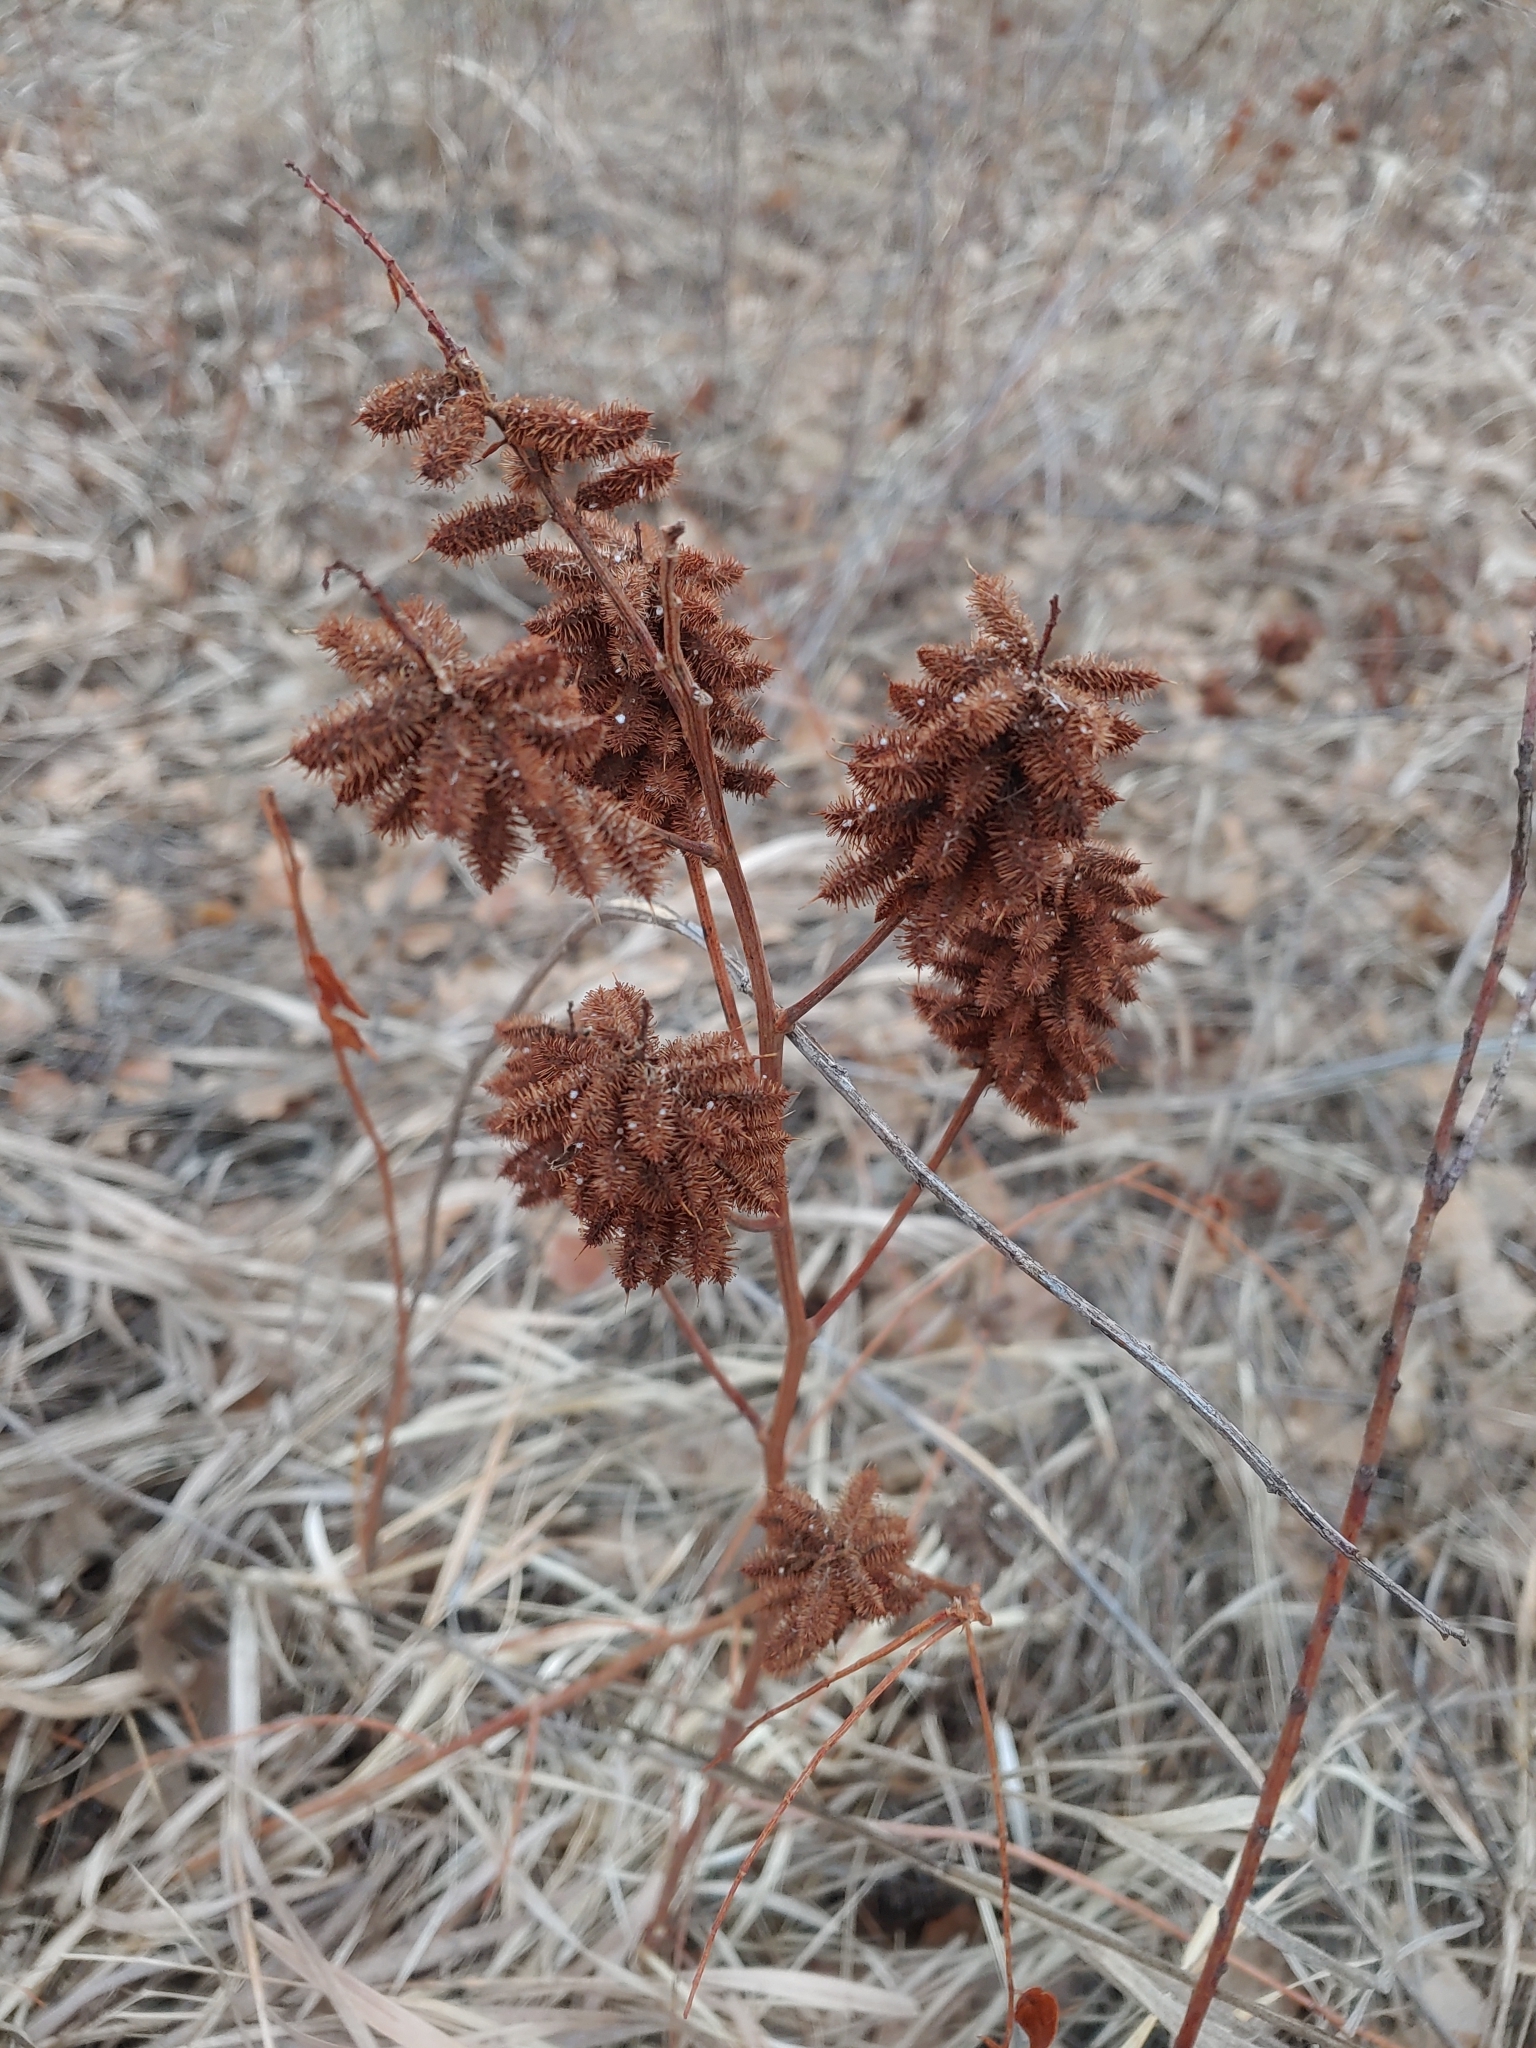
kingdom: Plantae
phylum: Tracheophyta
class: Magnoliopsida
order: Fabales
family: Fabaceae
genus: Glycyrrhiza
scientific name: Glycyrrhiza lepidota
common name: American liquorice
